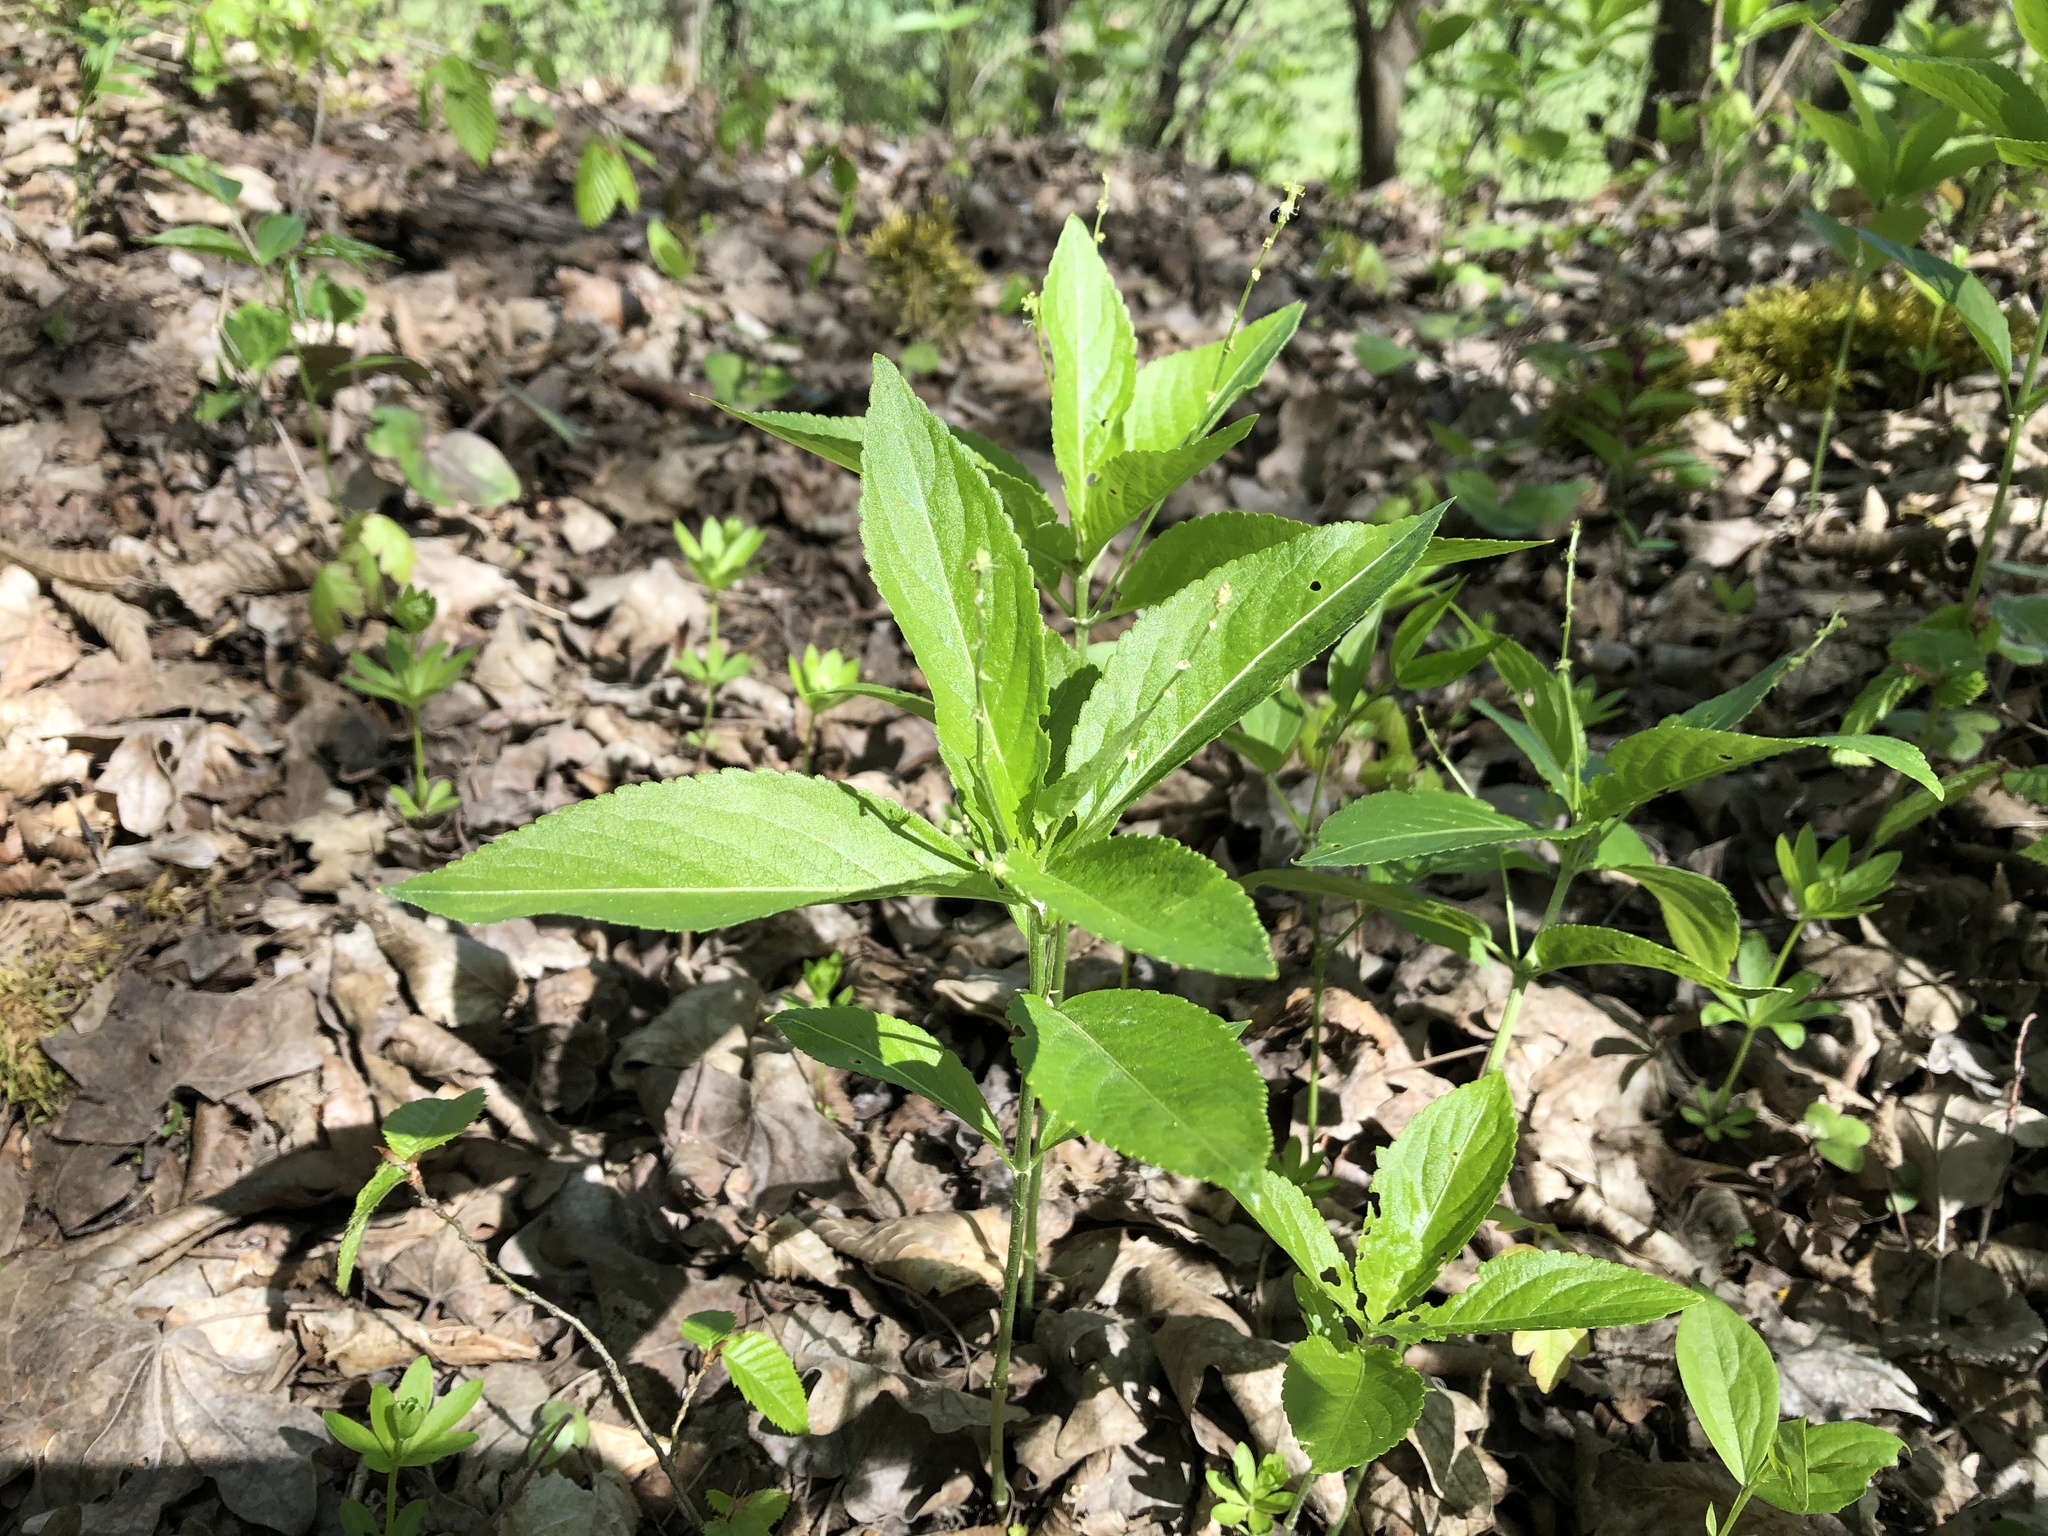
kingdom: Plantae
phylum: Tracheophyta
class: Magnoliopsida
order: Malpighiales
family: Euphorbiaceae
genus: Mercurialis
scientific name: Mercurialis perennis
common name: Dog mercury
